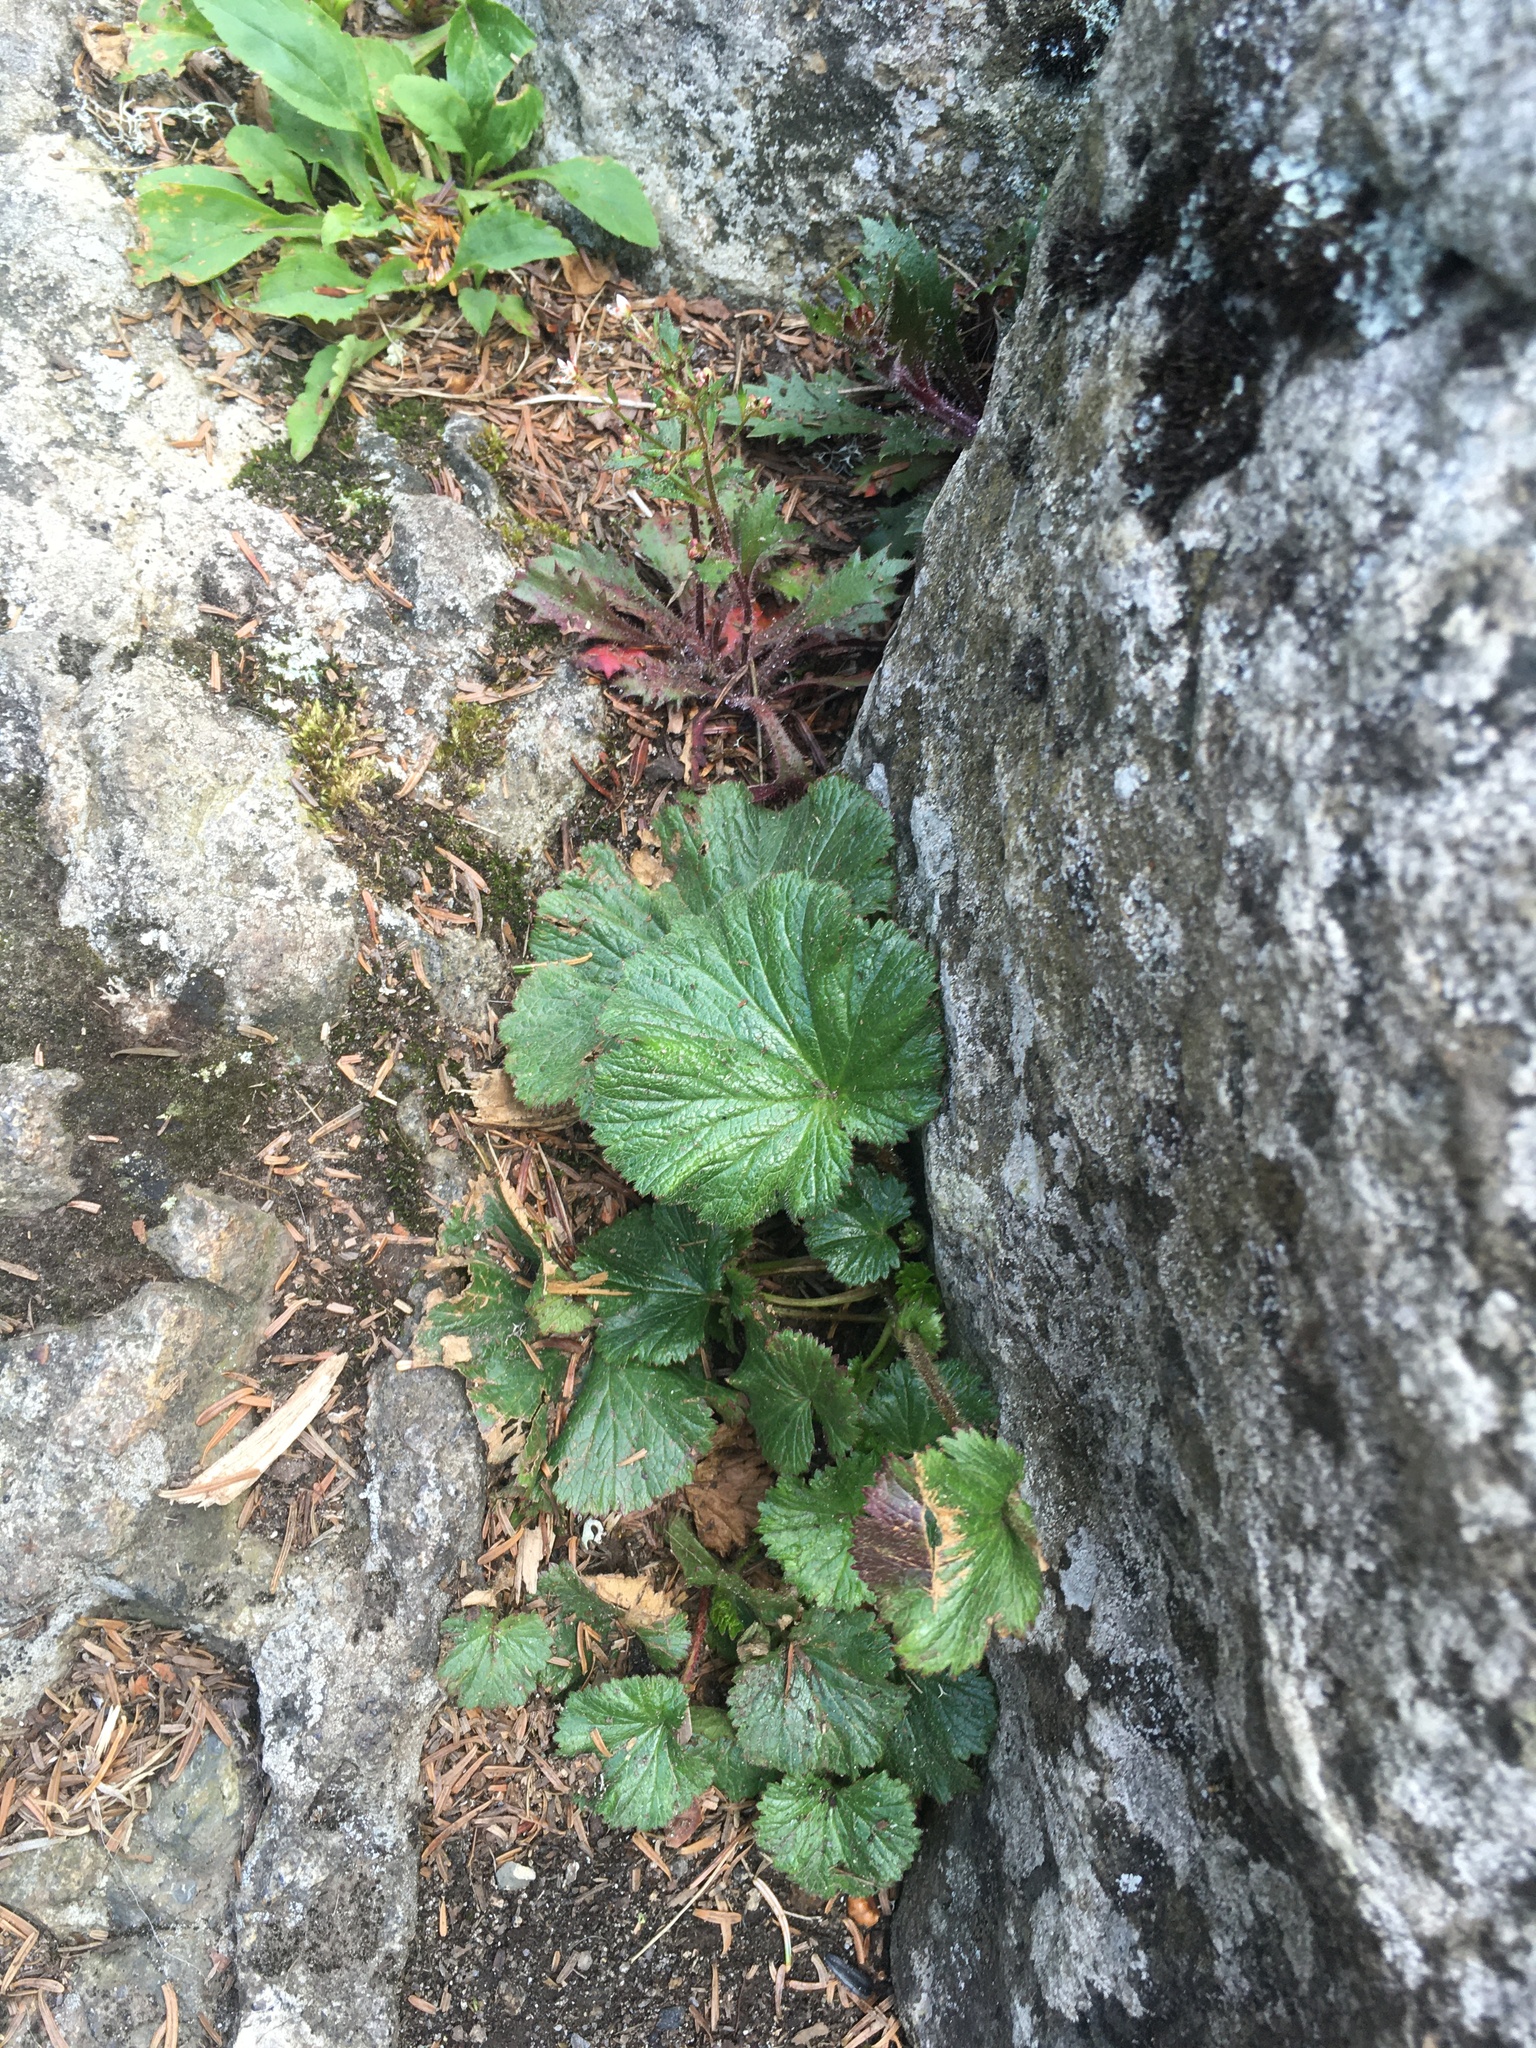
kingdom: Plantae
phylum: Tracheophyta
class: Magnoliopsida
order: Rosales
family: Rosaceae
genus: Geum
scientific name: Geum radiatum
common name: Spreaded avens
